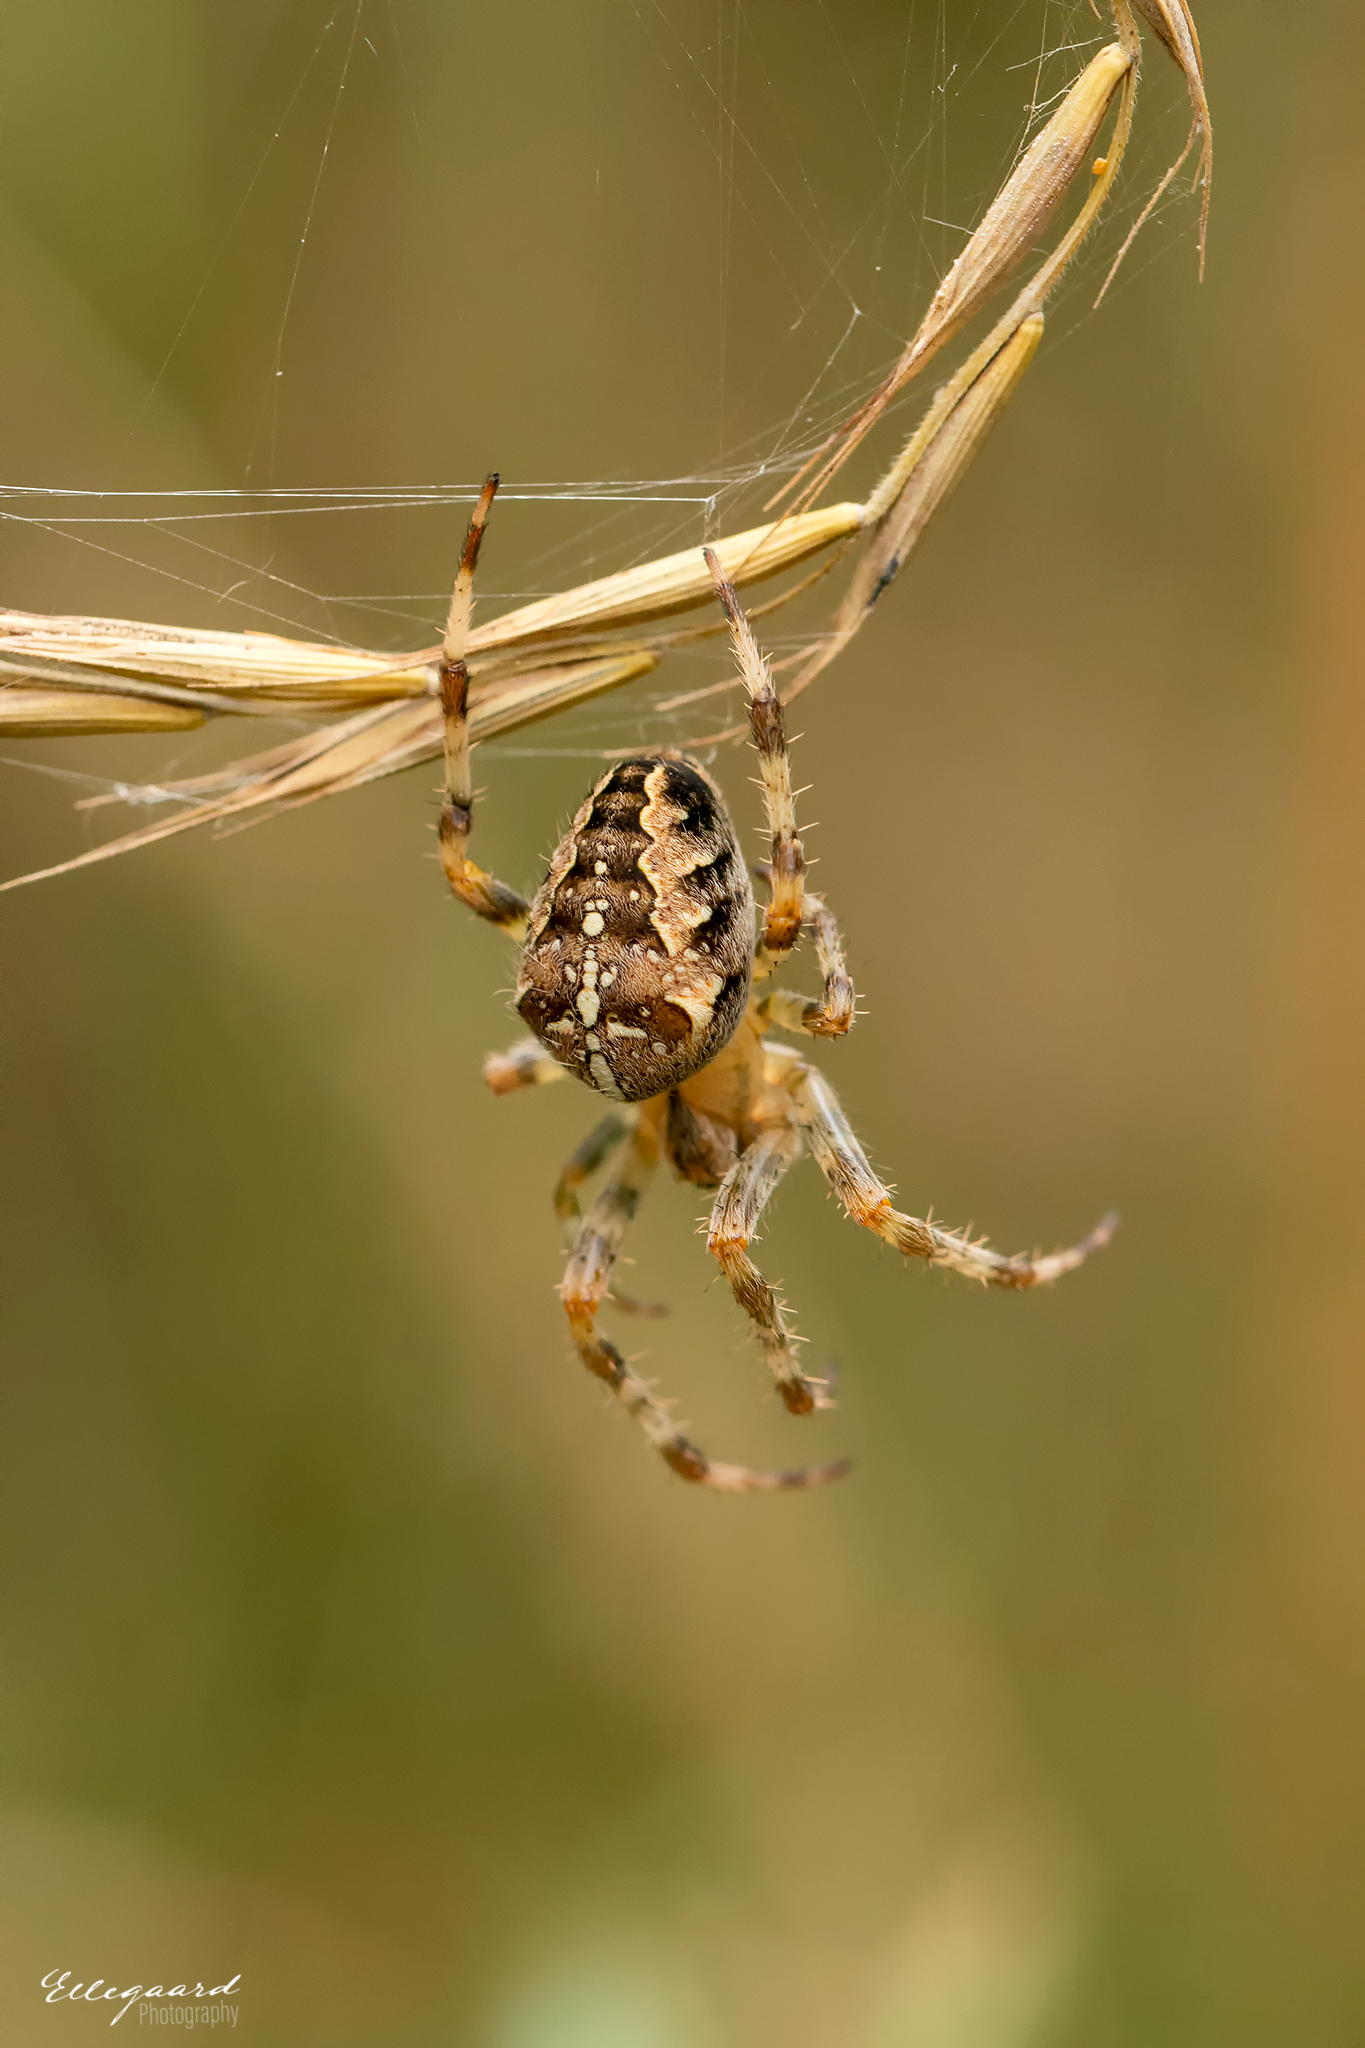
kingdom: Animalia
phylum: Arthropoda
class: Arachnida
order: Araneae
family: Araneidae
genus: Araneus
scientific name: Araneus diadematus
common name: Cross orbweaver
